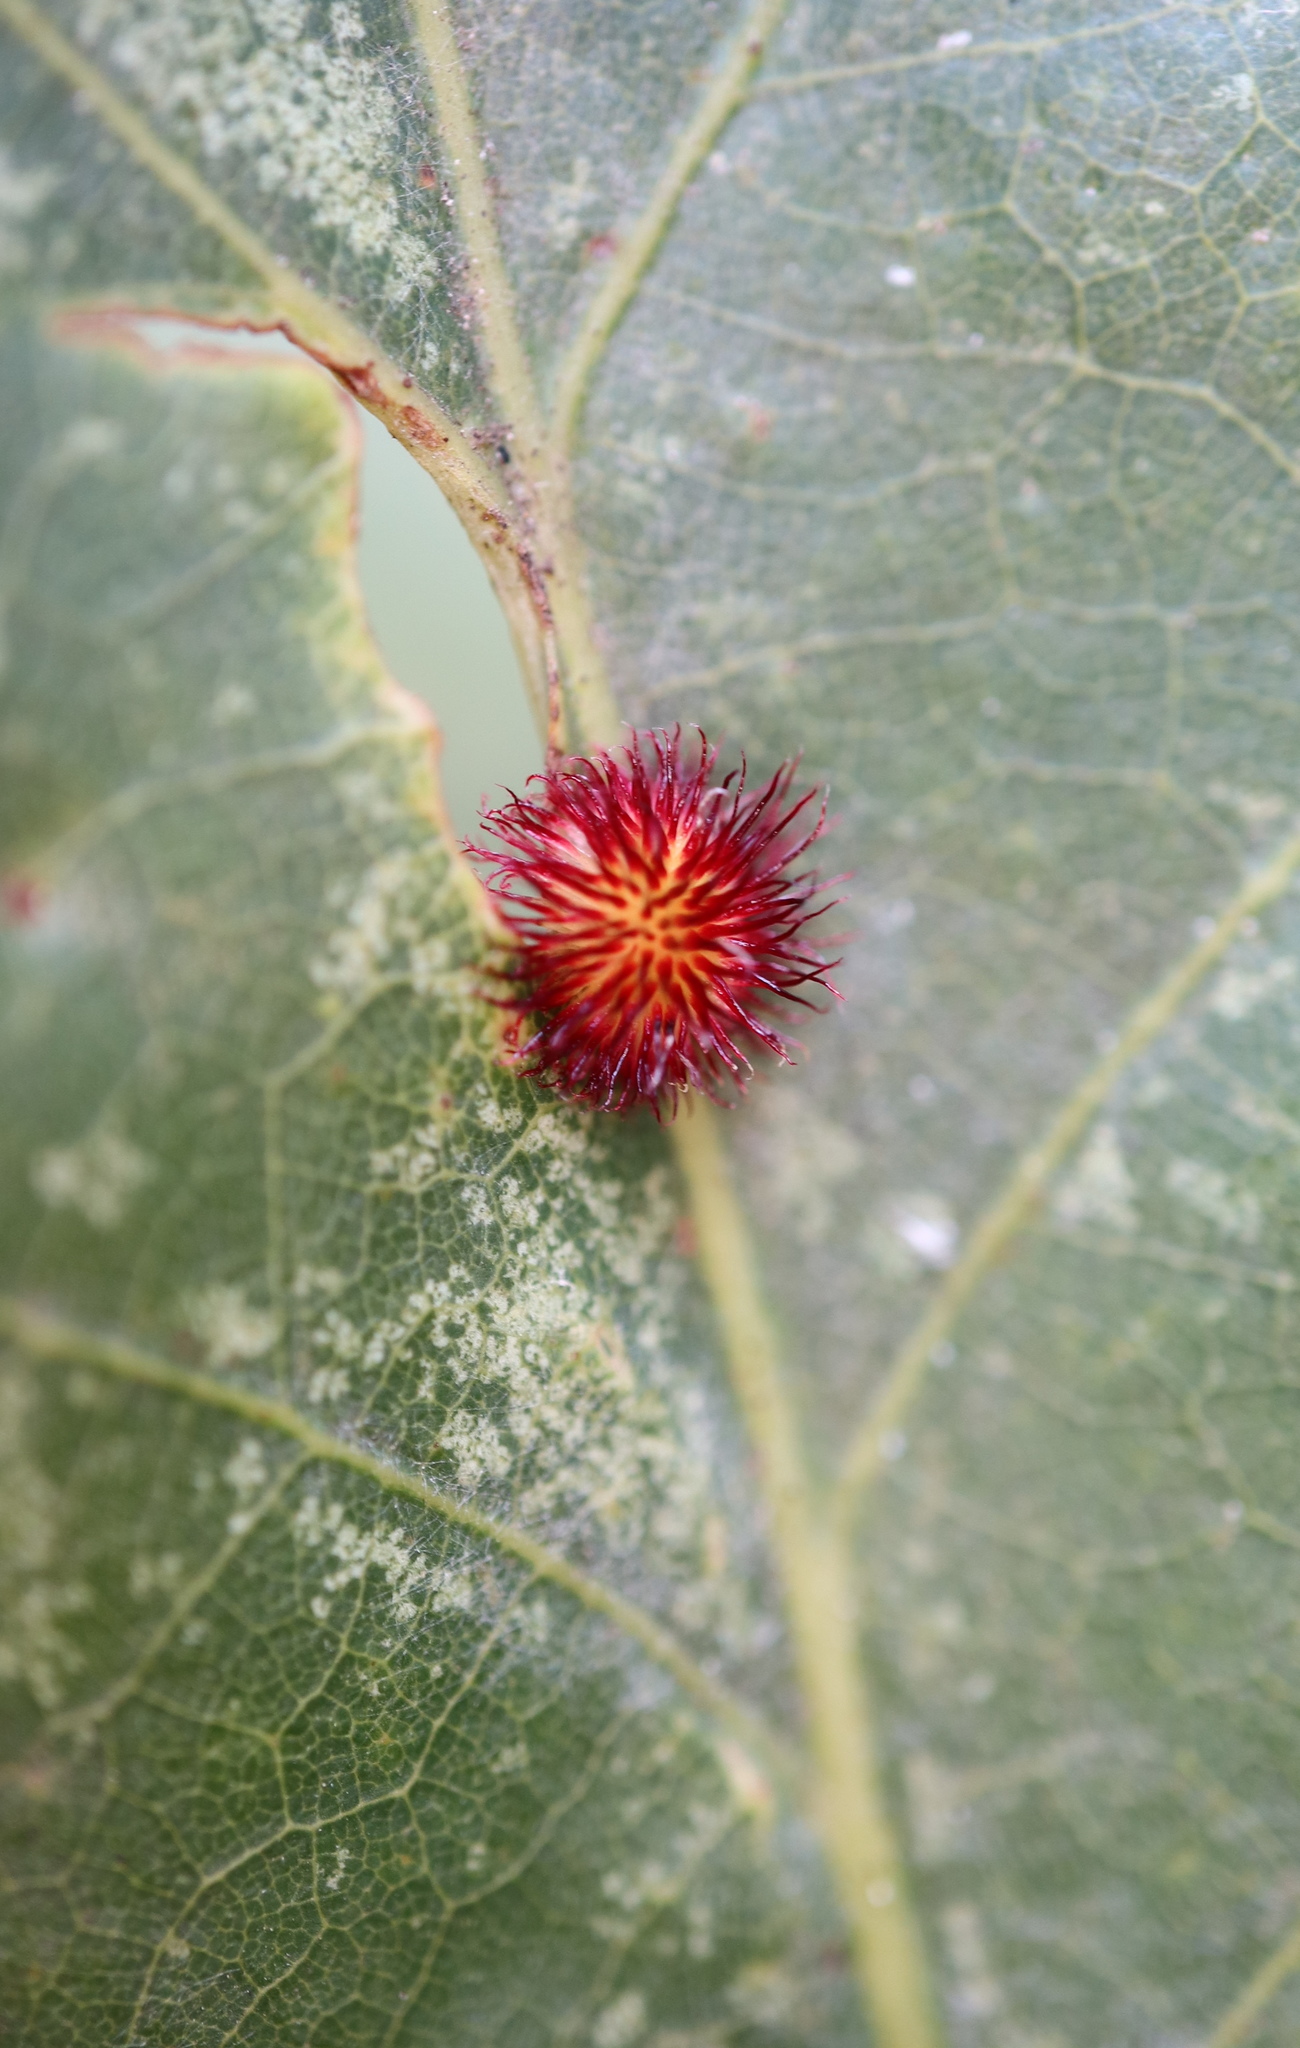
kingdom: Animalia
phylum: Arthropoda
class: Insecta
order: Hymenoptera
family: Cynipidae
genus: Acraspis
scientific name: Acraspis erinacei
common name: Hedgehog gall wasp
